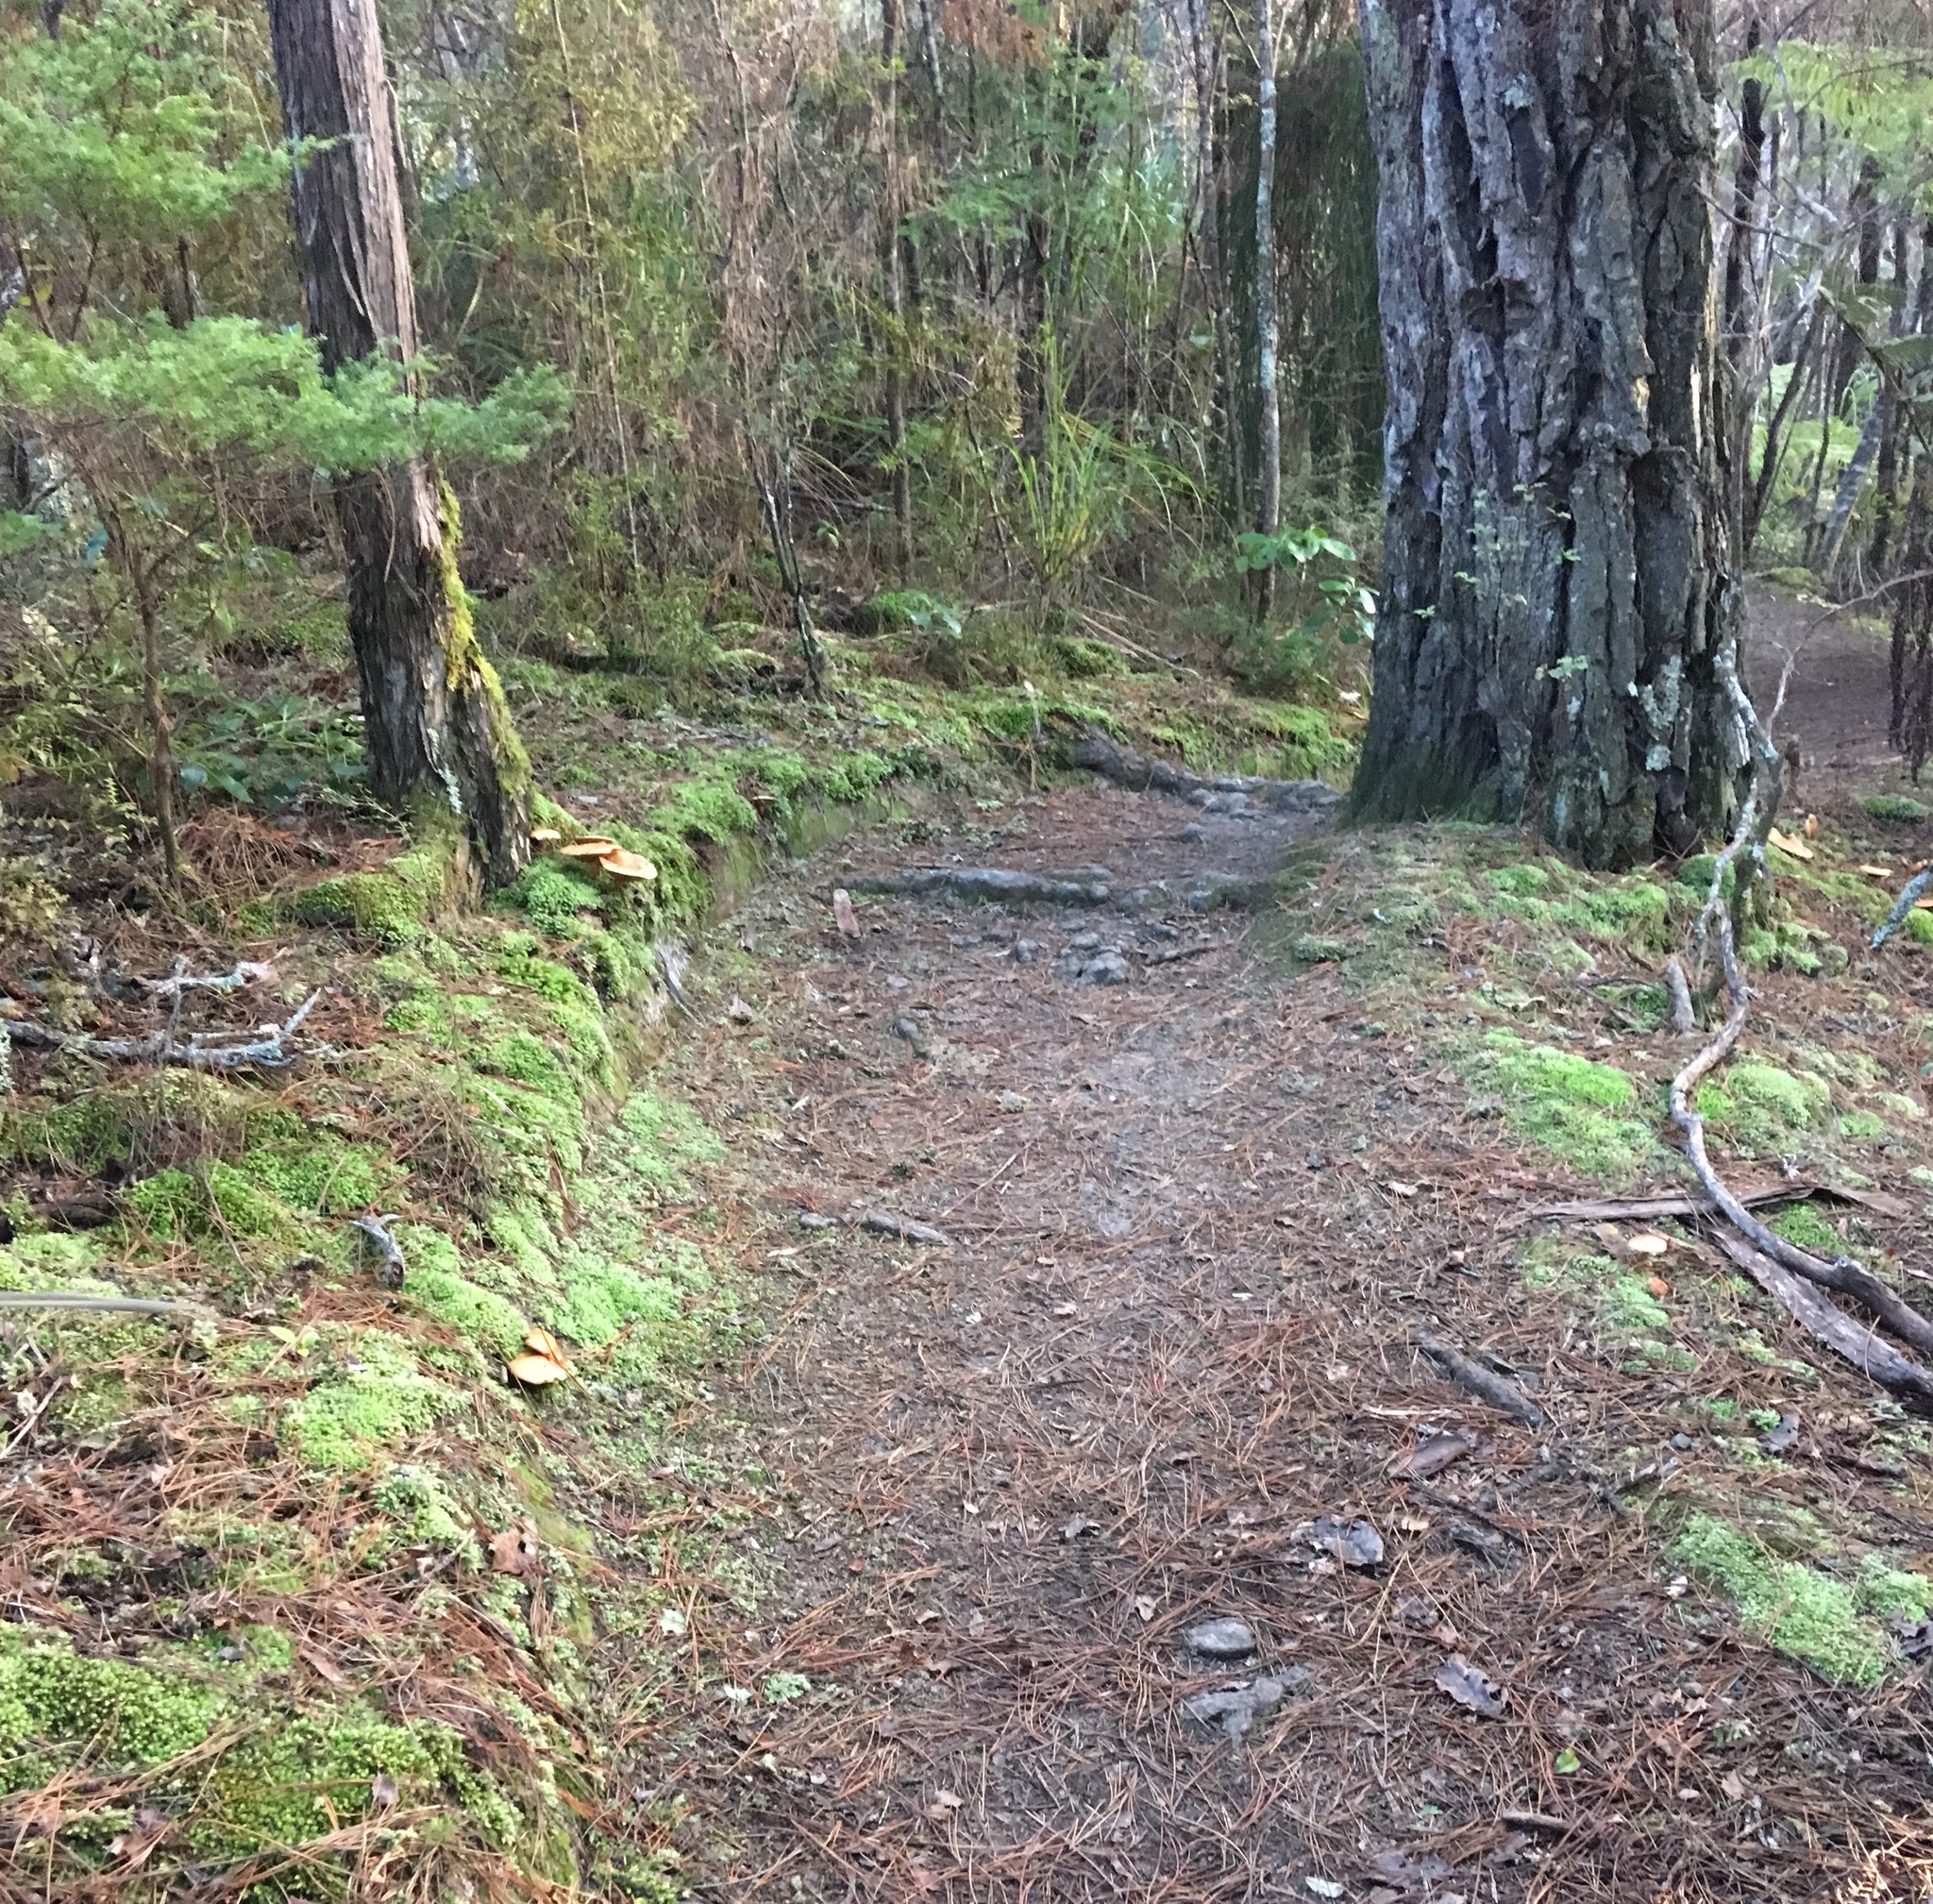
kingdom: Plantae
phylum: Bryophyta
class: Bryopsida
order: Dicranales
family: Leucobryaceae
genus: Leucobryum
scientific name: Leucobryum javense
